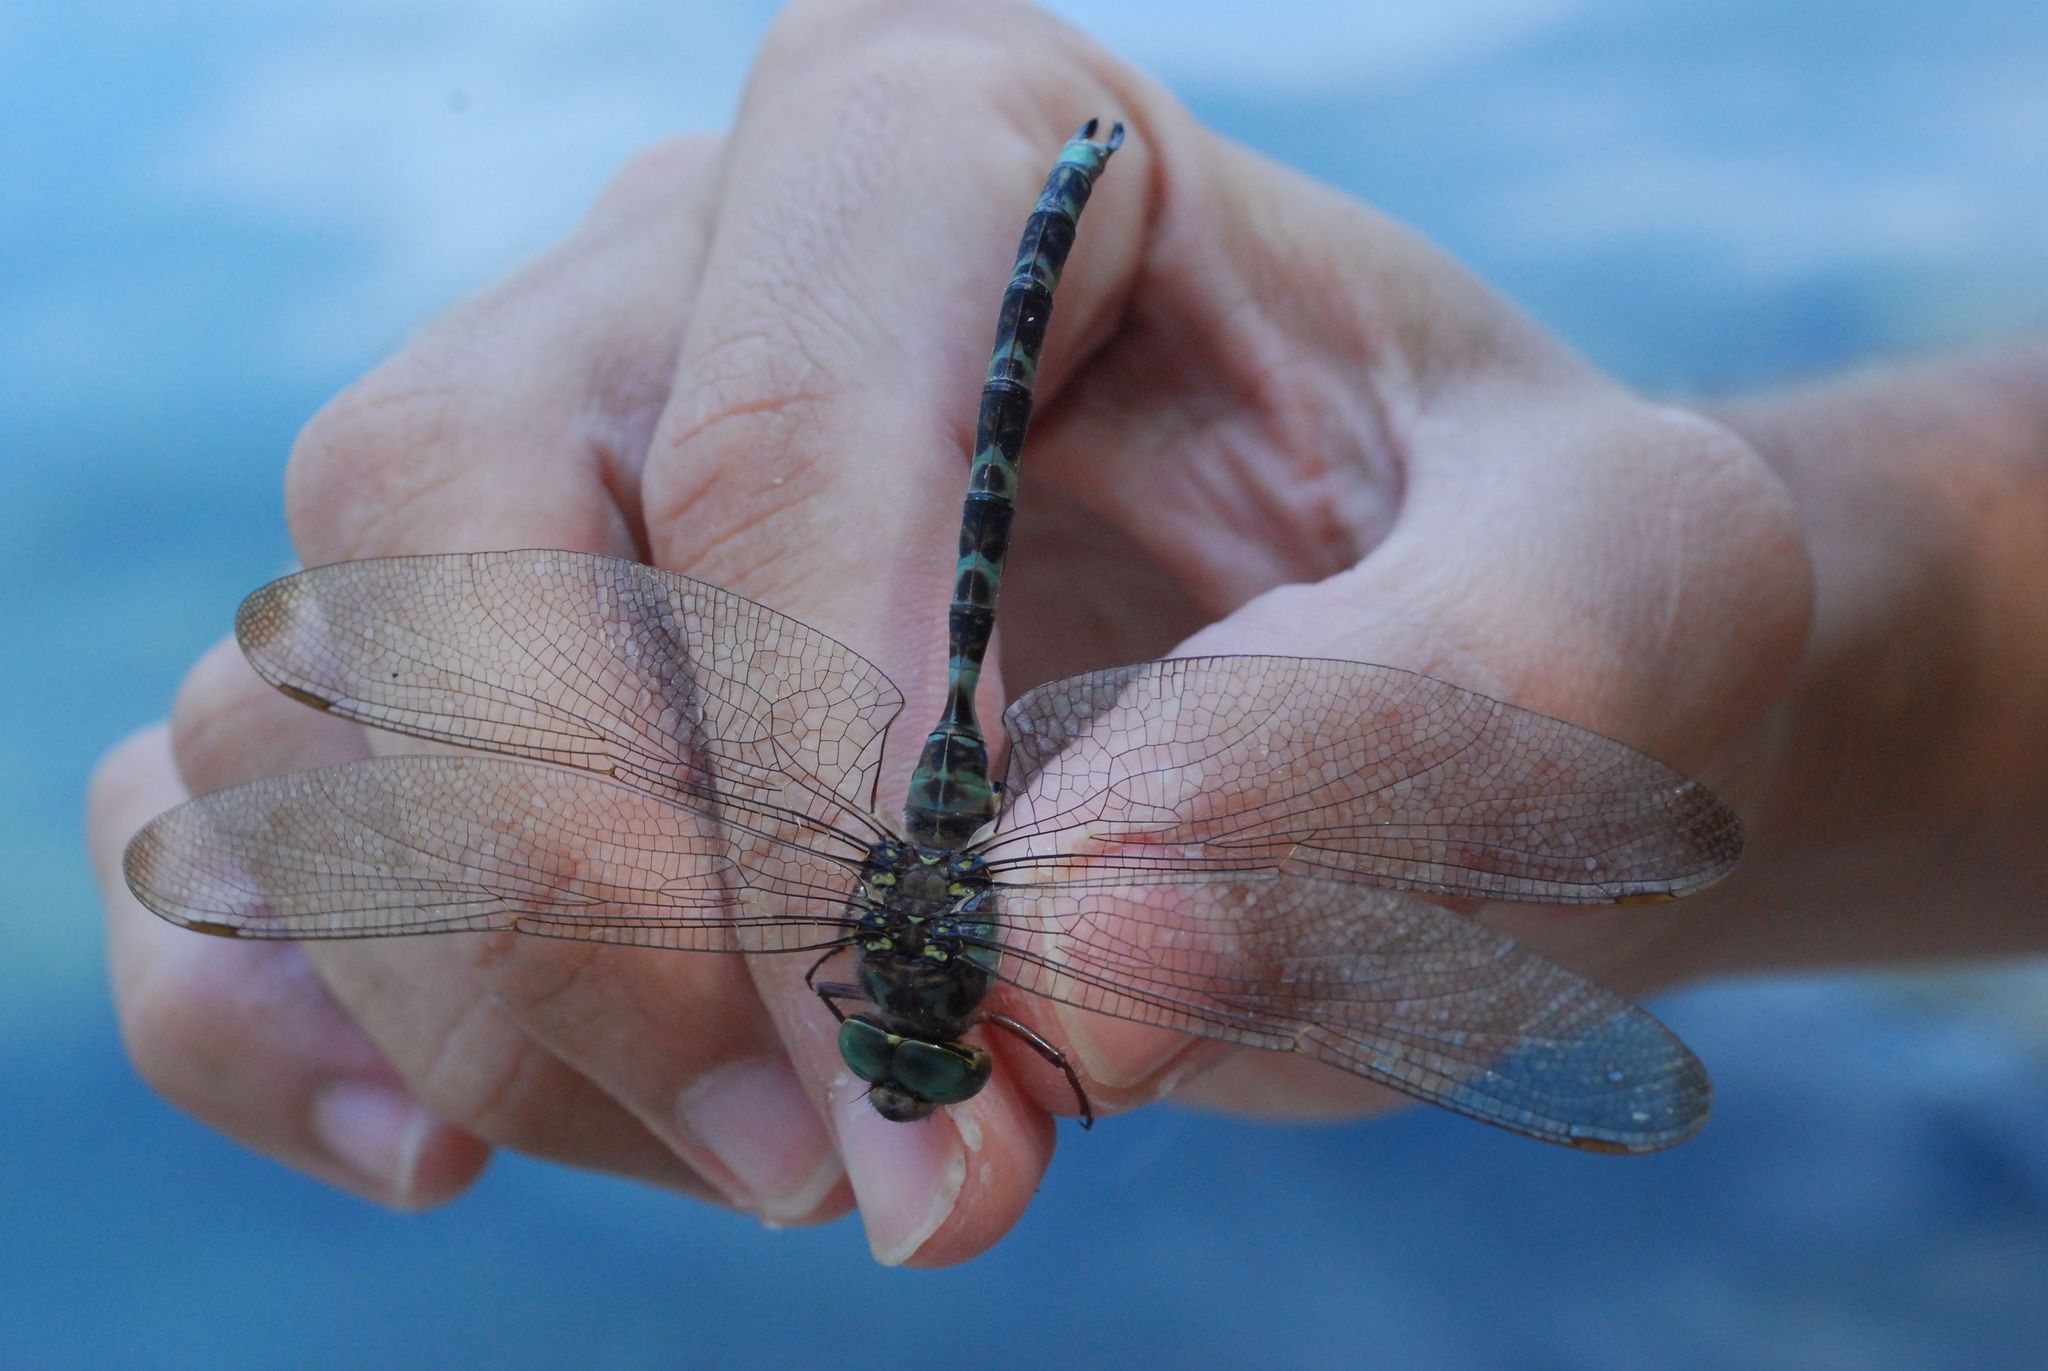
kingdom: Animalia
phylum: Arthropoda
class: Insecta
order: Odonata
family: Aeshnidae
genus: Boyeria
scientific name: Boyeria irene
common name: Western spectre
